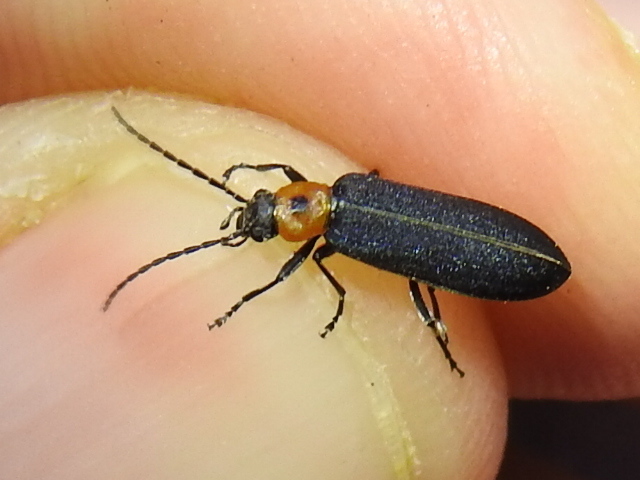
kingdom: Animalia
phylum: Arthropoda
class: Insecta
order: Coleoptera
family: Oedemeridae
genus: Ischnomera
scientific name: Ischnomera
